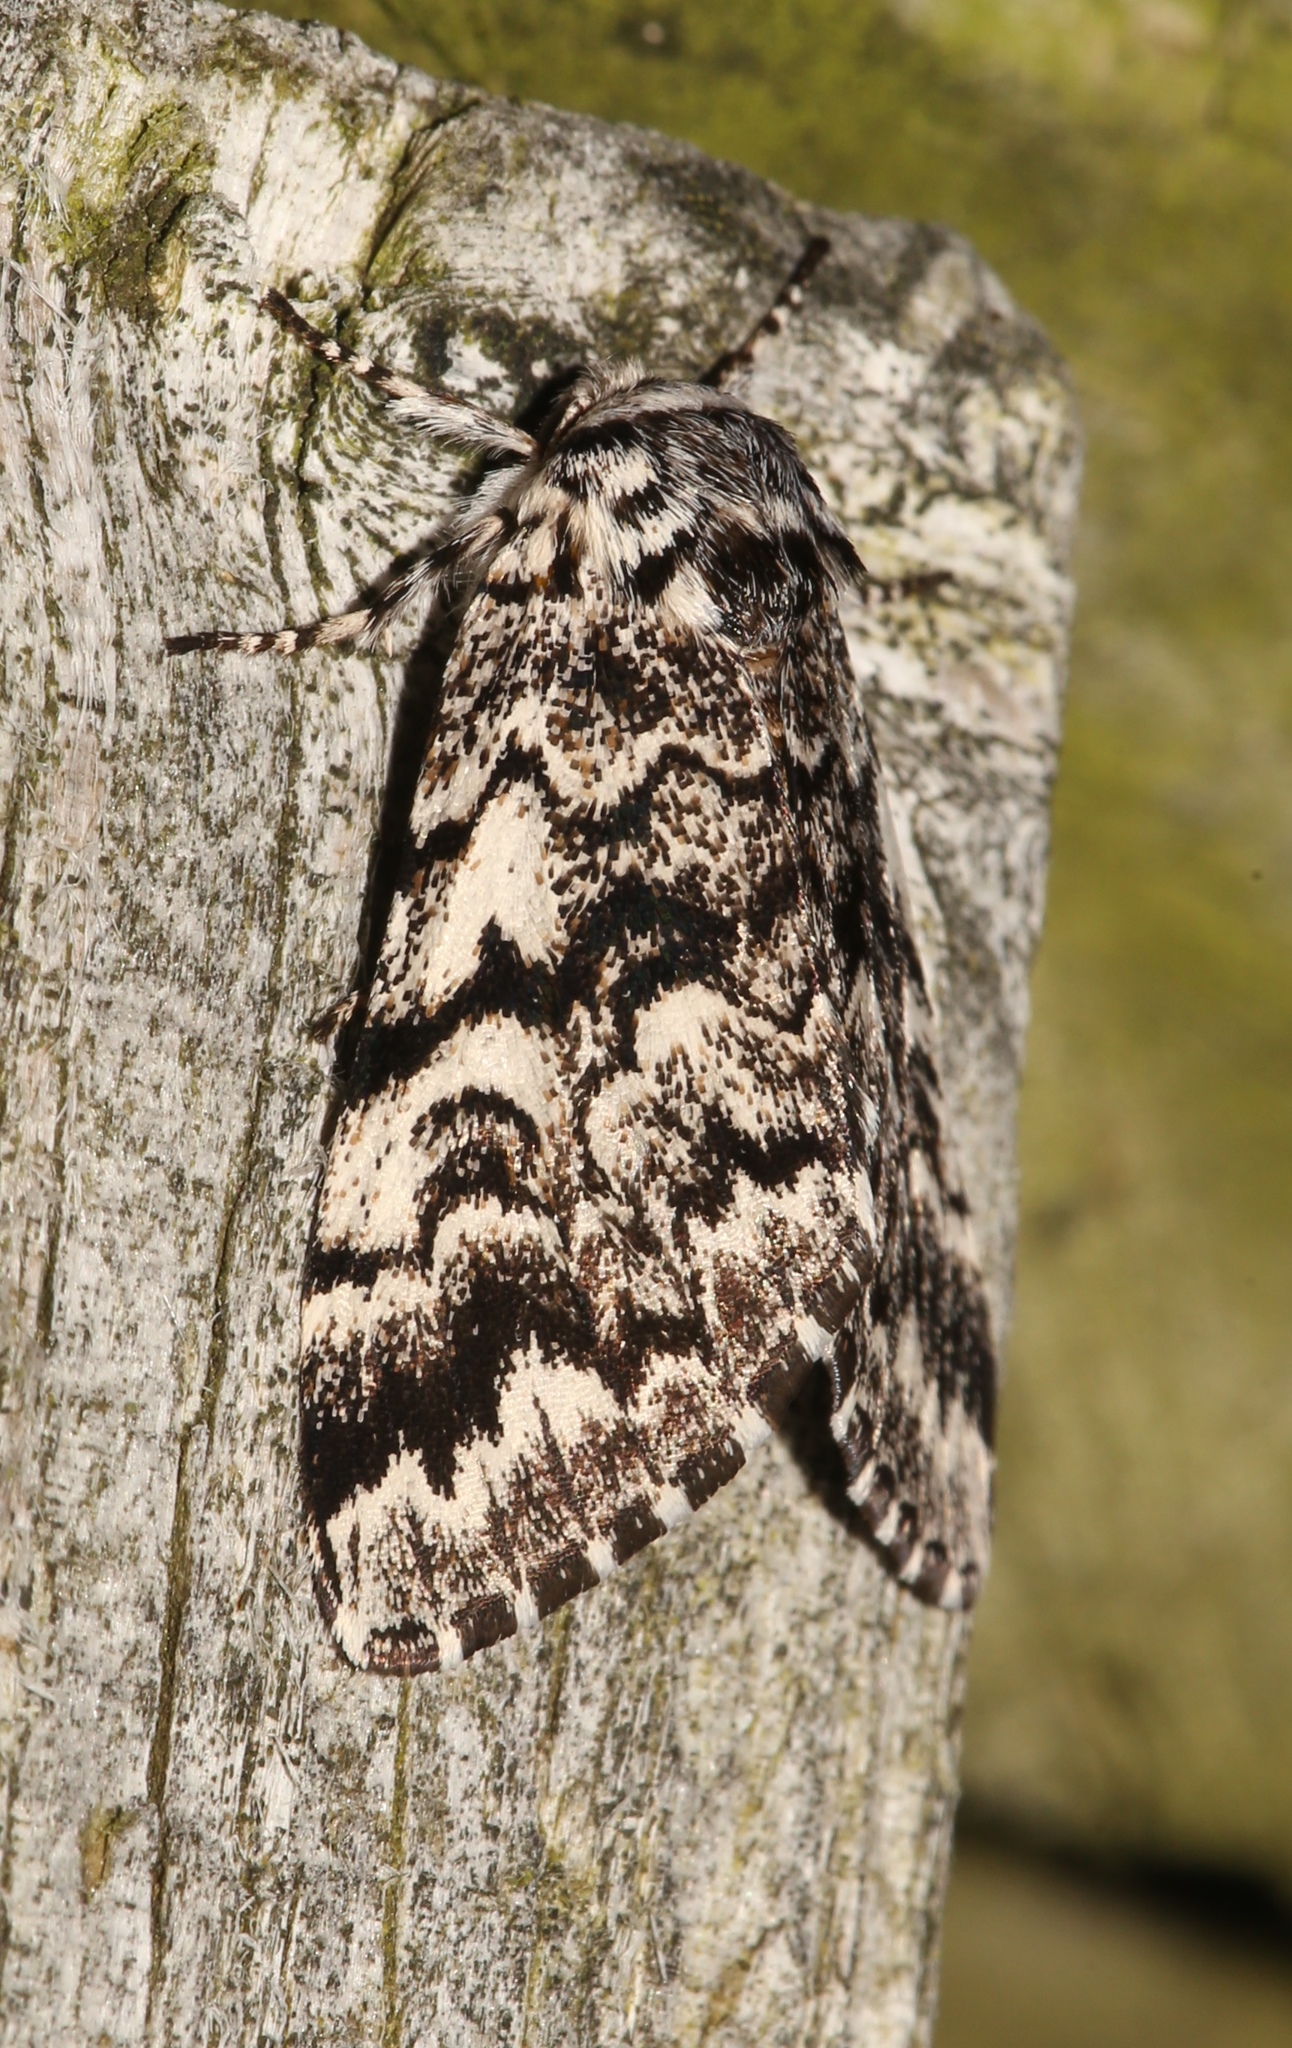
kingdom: Animalia
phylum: Arthropoda
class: Insecta
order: Lepidoptera
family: Noctuidae
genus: Panthea
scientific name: Panthea acronyctoides
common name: Black zigzag moth
